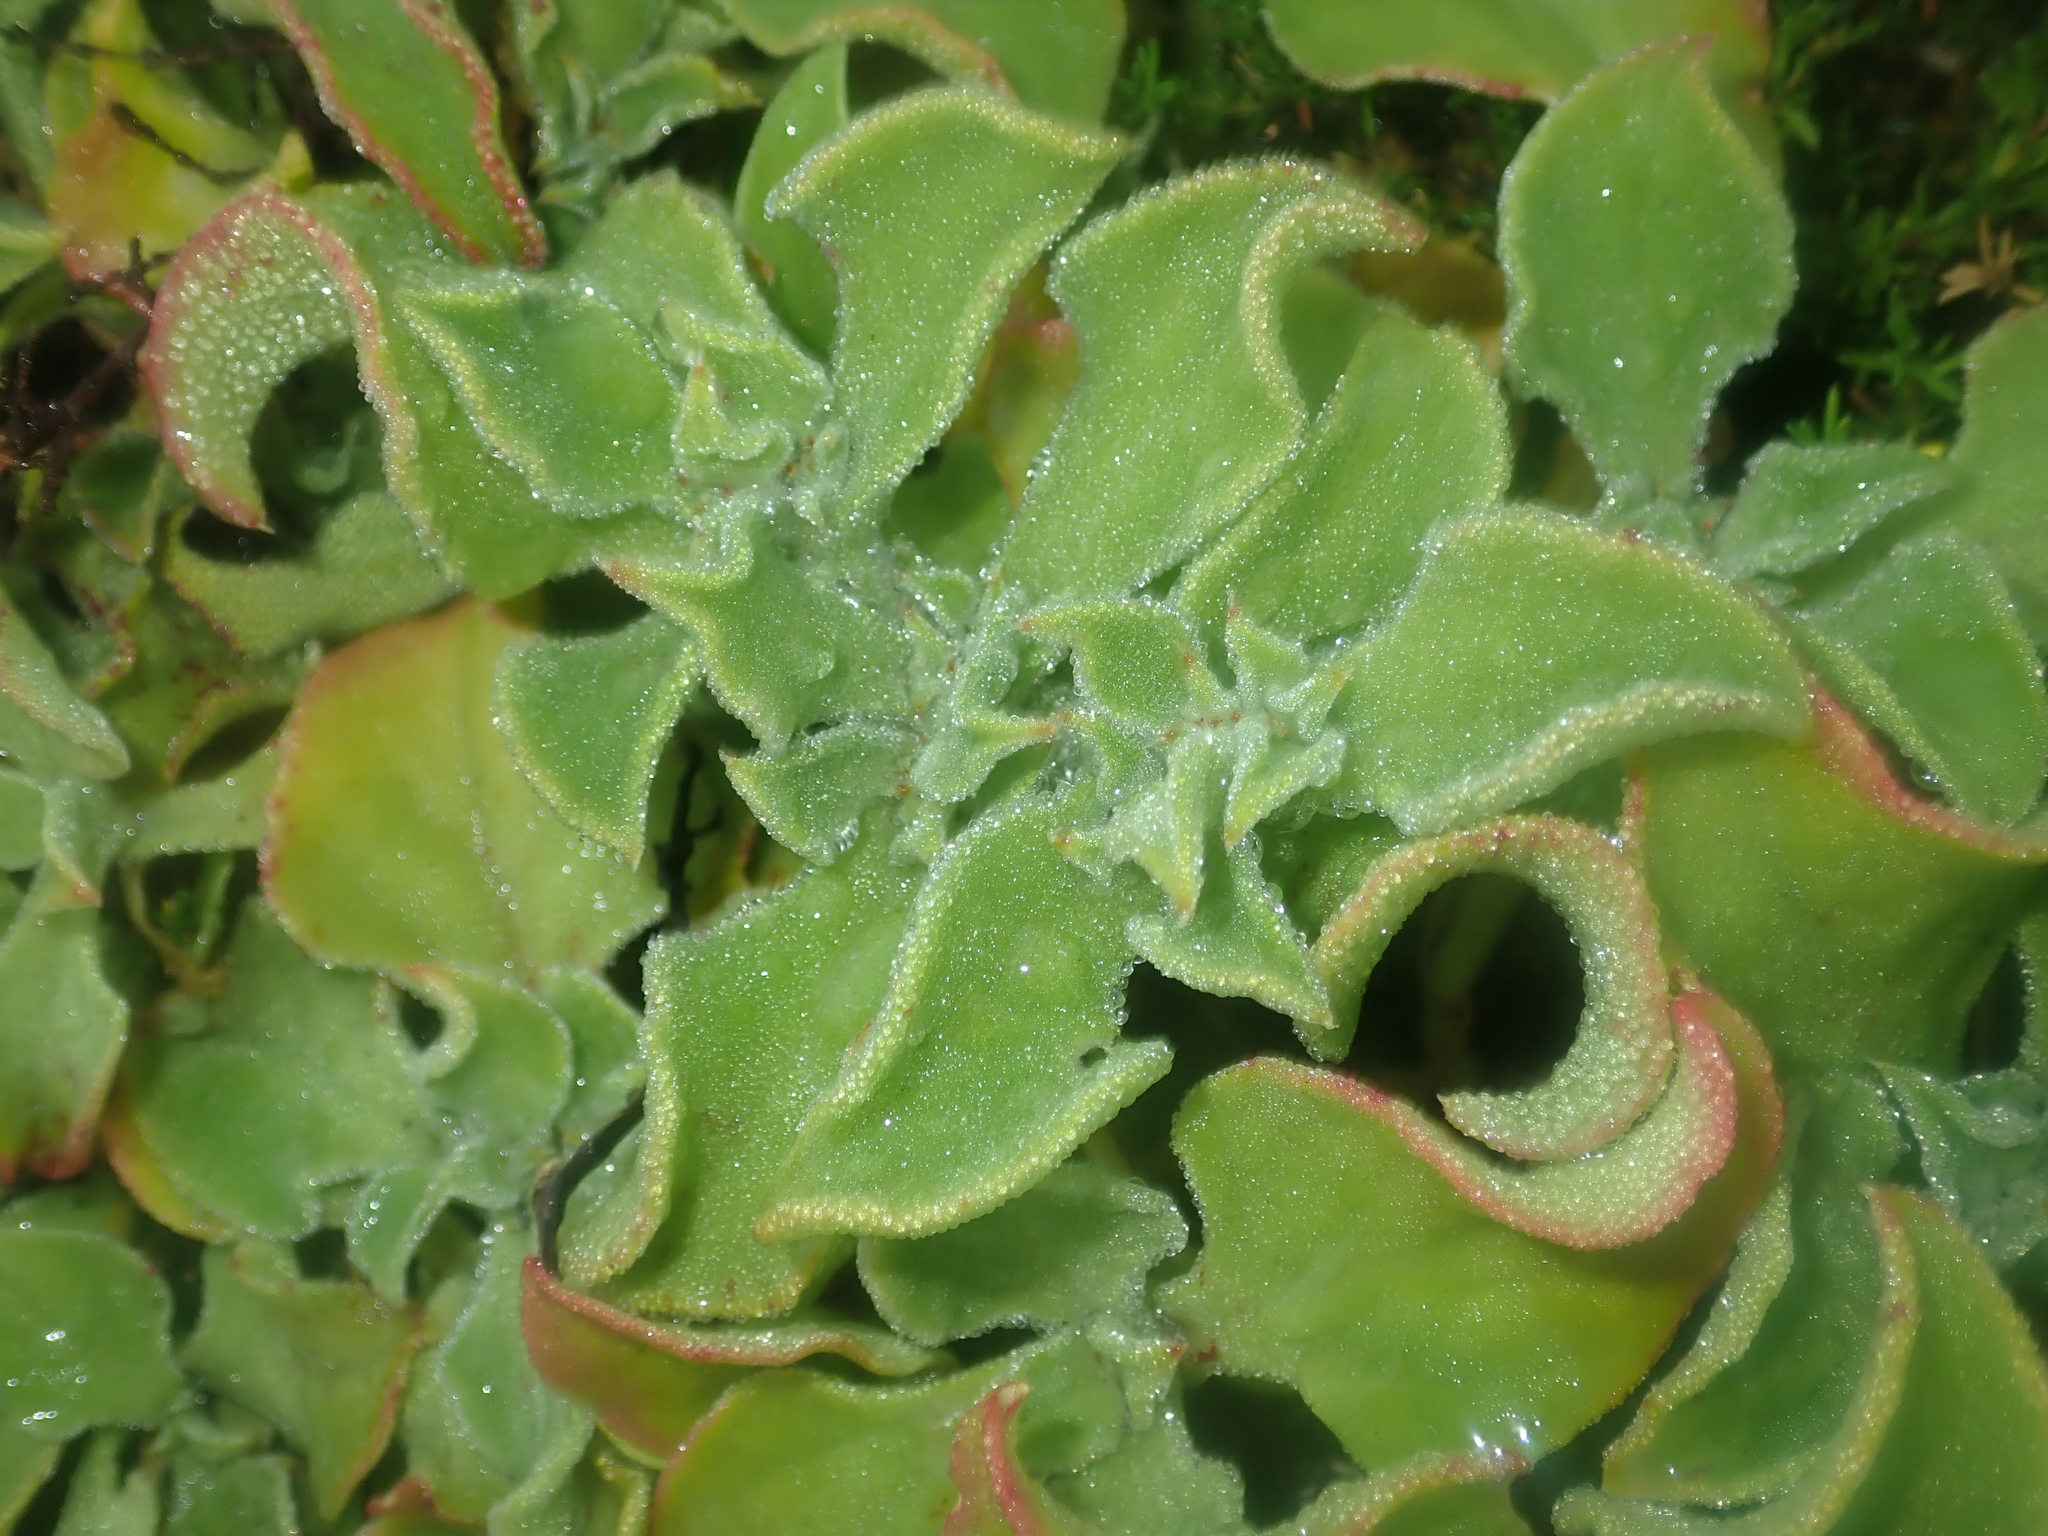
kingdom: Plantae
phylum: Tracheophyta
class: Magnoliopsida
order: Caryophyllales
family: Aizoaceae
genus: Mesembryanthemum
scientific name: Mesembryanthemum crystallinum
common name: Common iceplant
